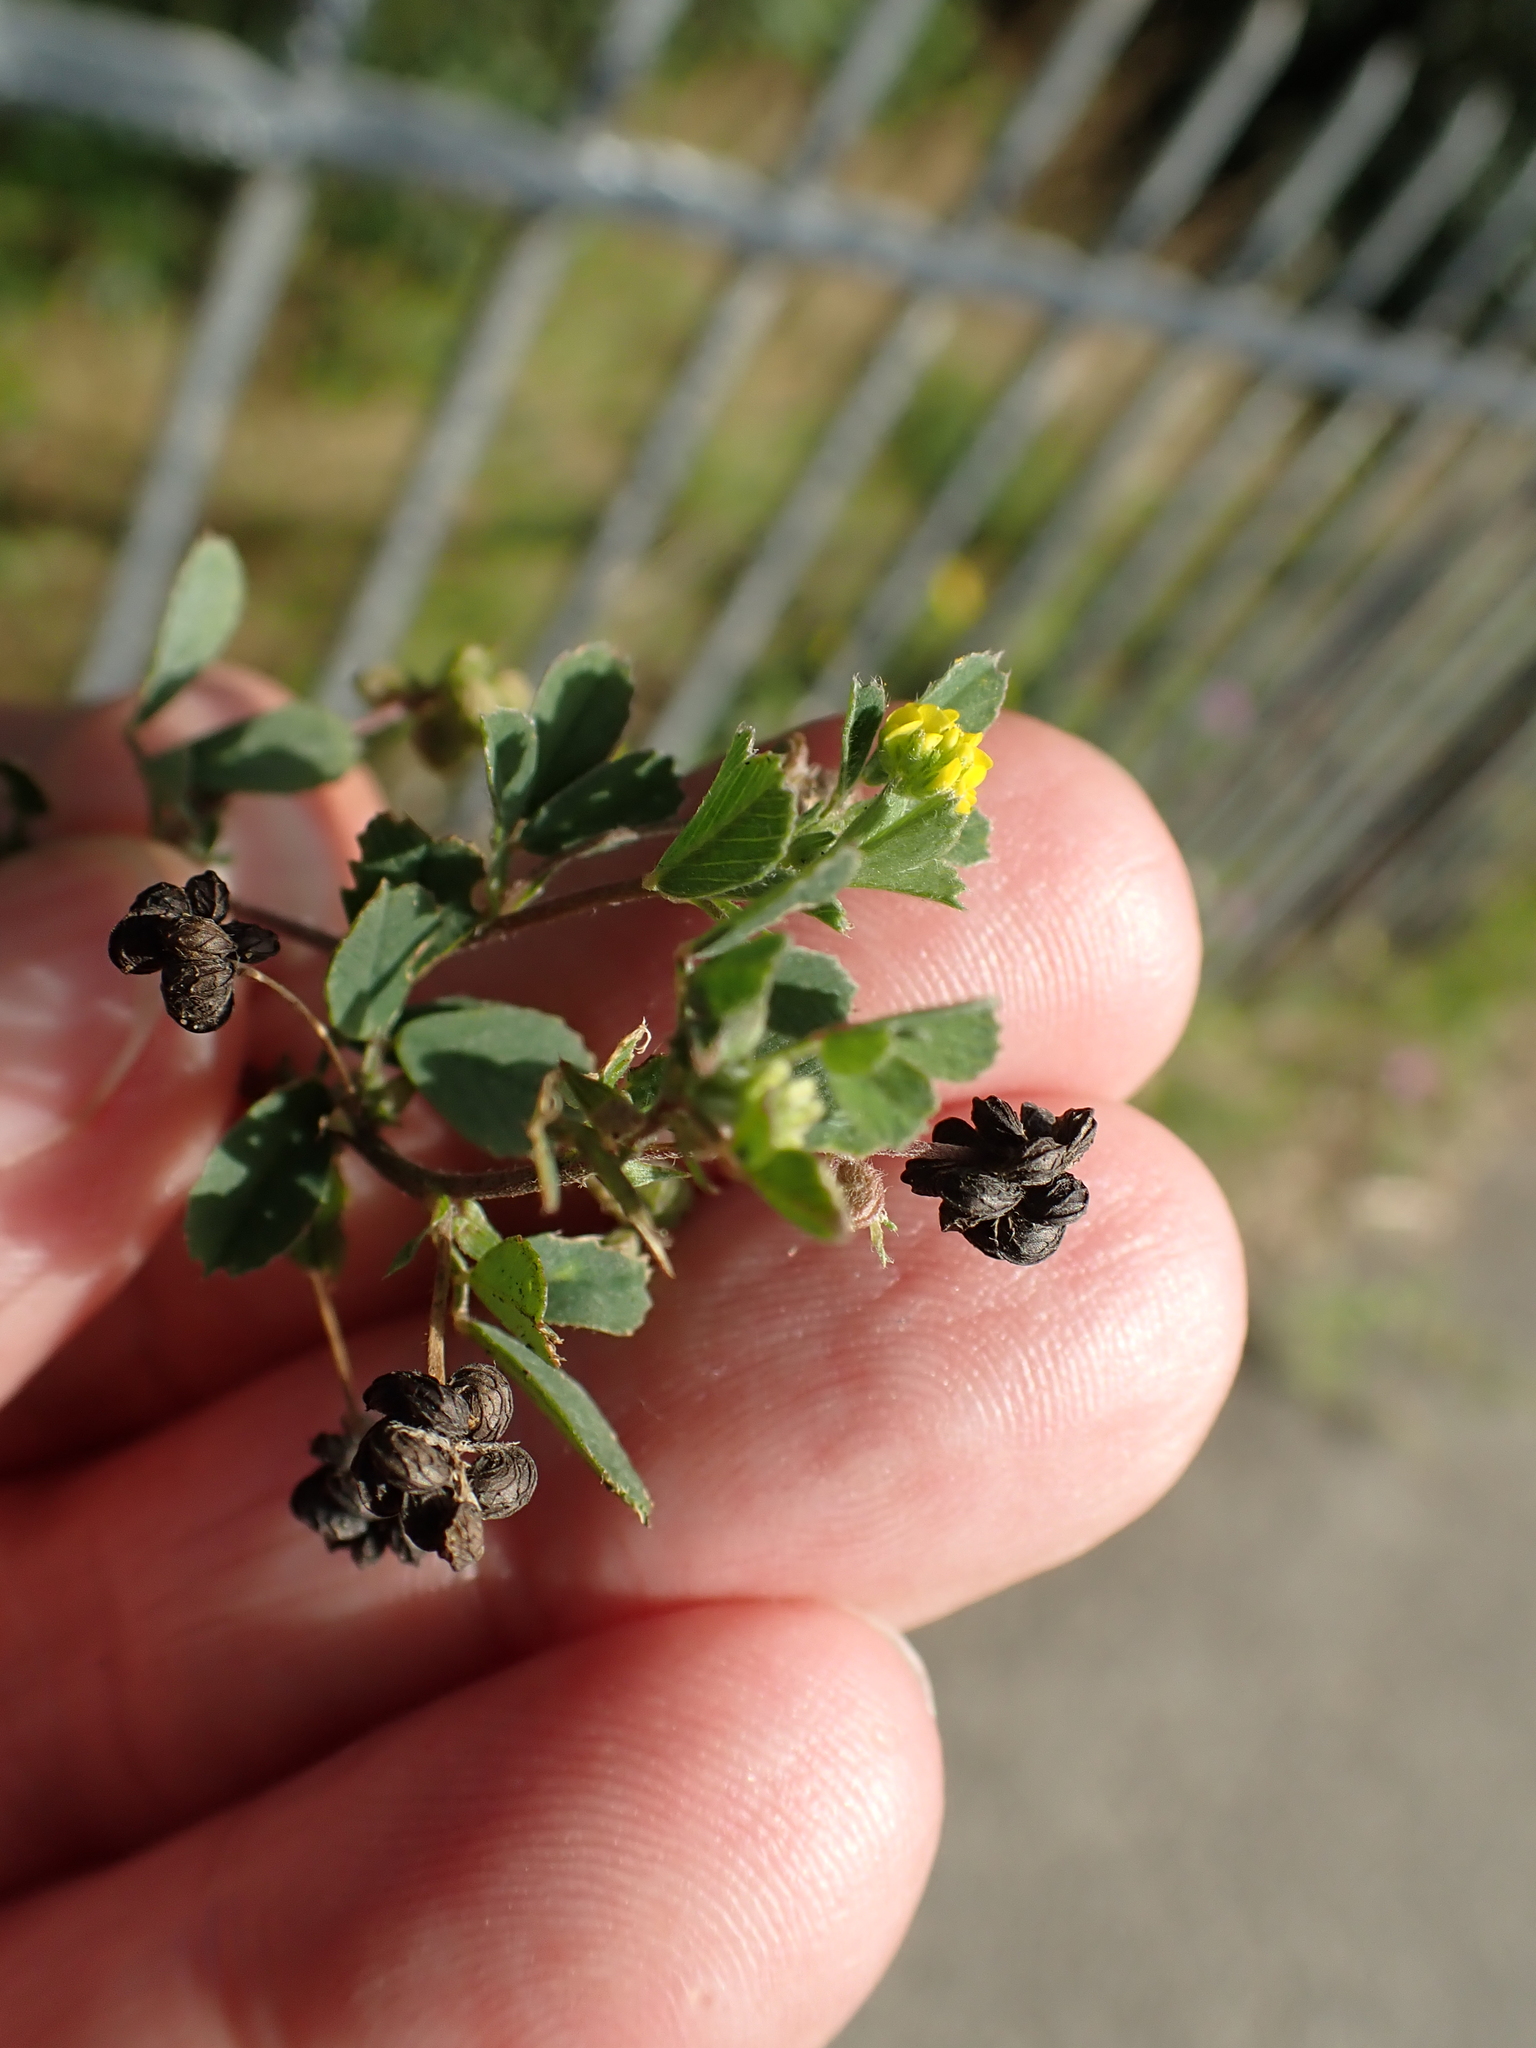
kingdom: Plantae
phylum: Tracheophyta
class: Magnoliopsida
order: Fabales
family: Fabaceae
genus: Medicago
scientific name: Medicago lupulina
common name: Black medick
